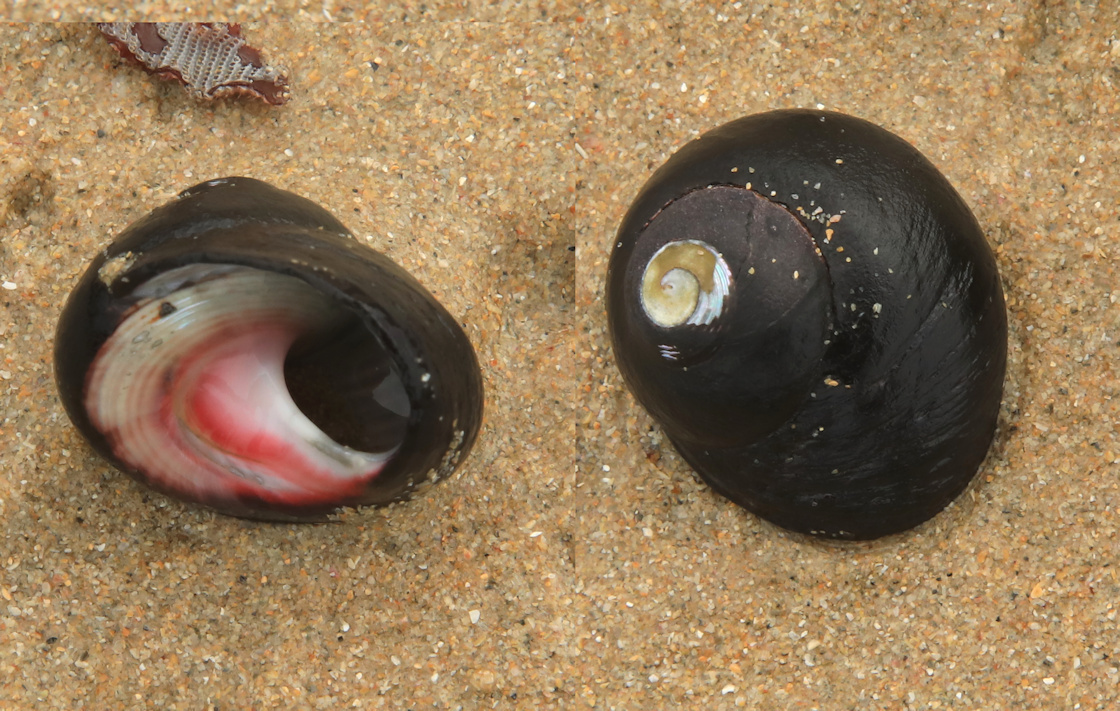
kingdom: Animalia
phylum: Mollusca
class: Gastropoda
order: Trochida
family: Trochidae
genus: Oxystele
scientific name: Oxystele sinensis
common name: Pink-lipped topshell
